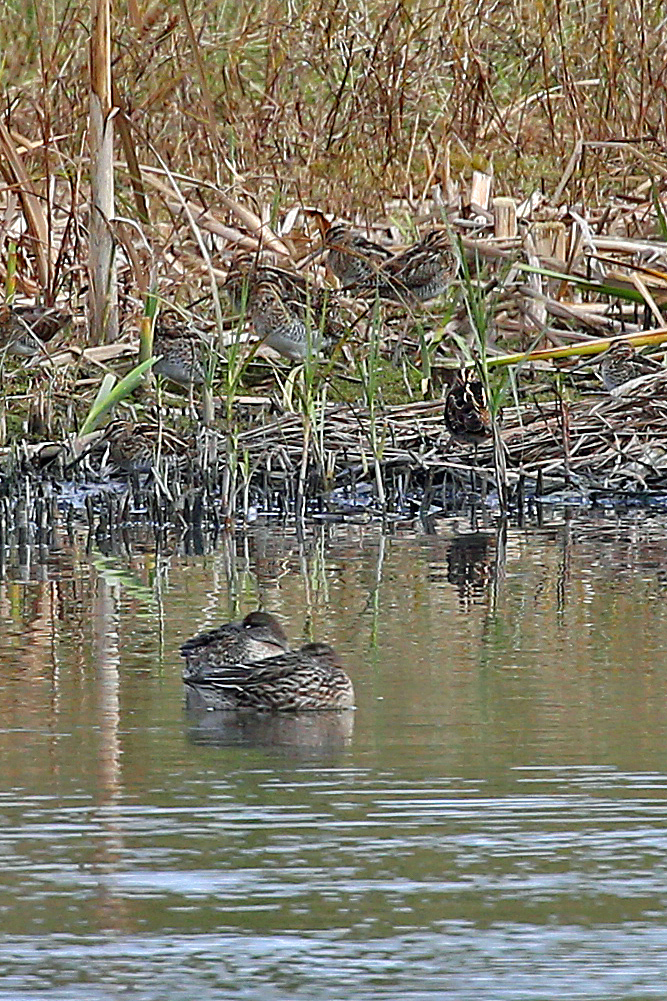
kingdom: Animalia
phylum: Chordata
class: Aves
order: Charadriiformes
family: Scolopacidae
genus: Gallinago
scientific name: Gallinago gallinago
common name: Common snipe
